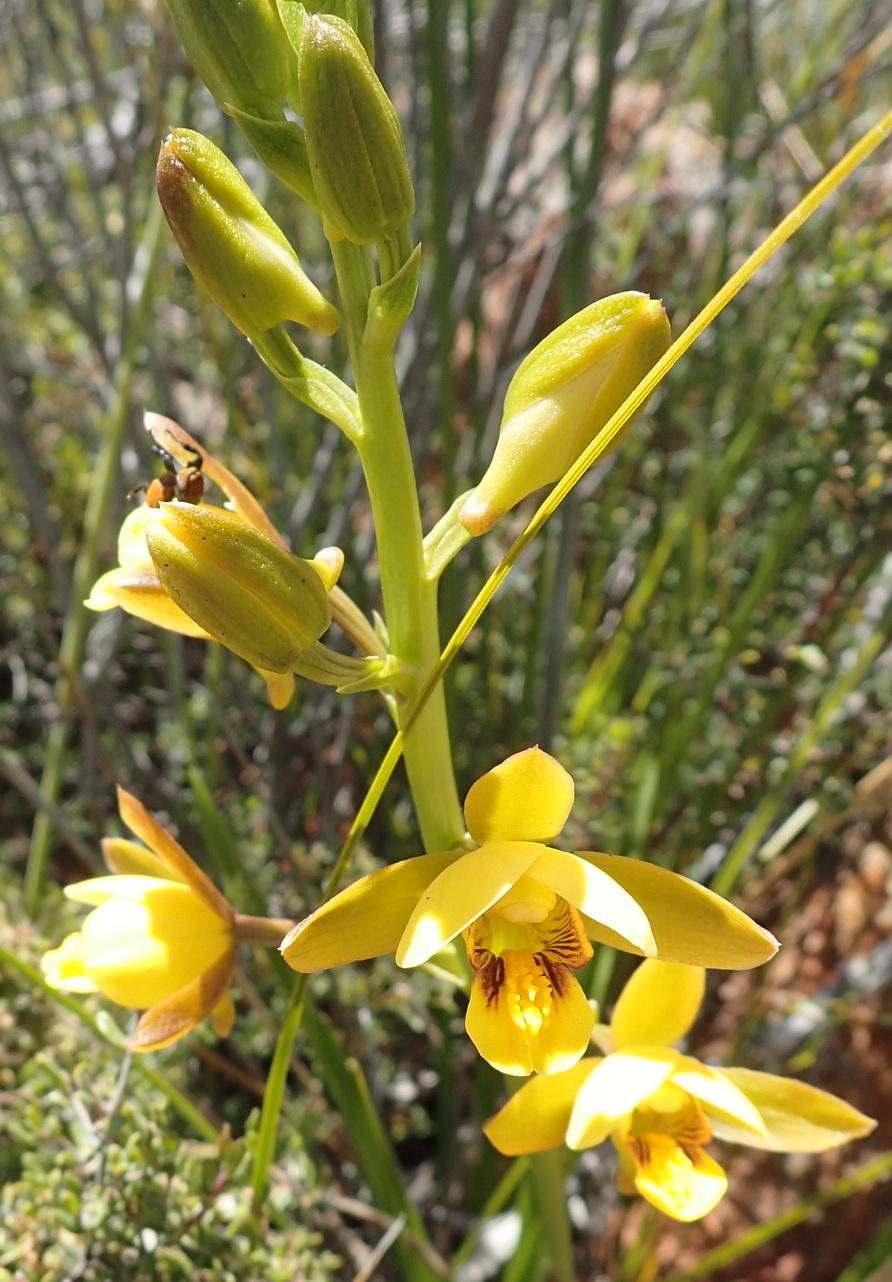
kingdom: Plantae
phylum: Tracheophyta
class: Liliopsida
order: Asparagales
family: Orchidaceae
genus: Eulophia
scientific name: Eulophia platypetala
